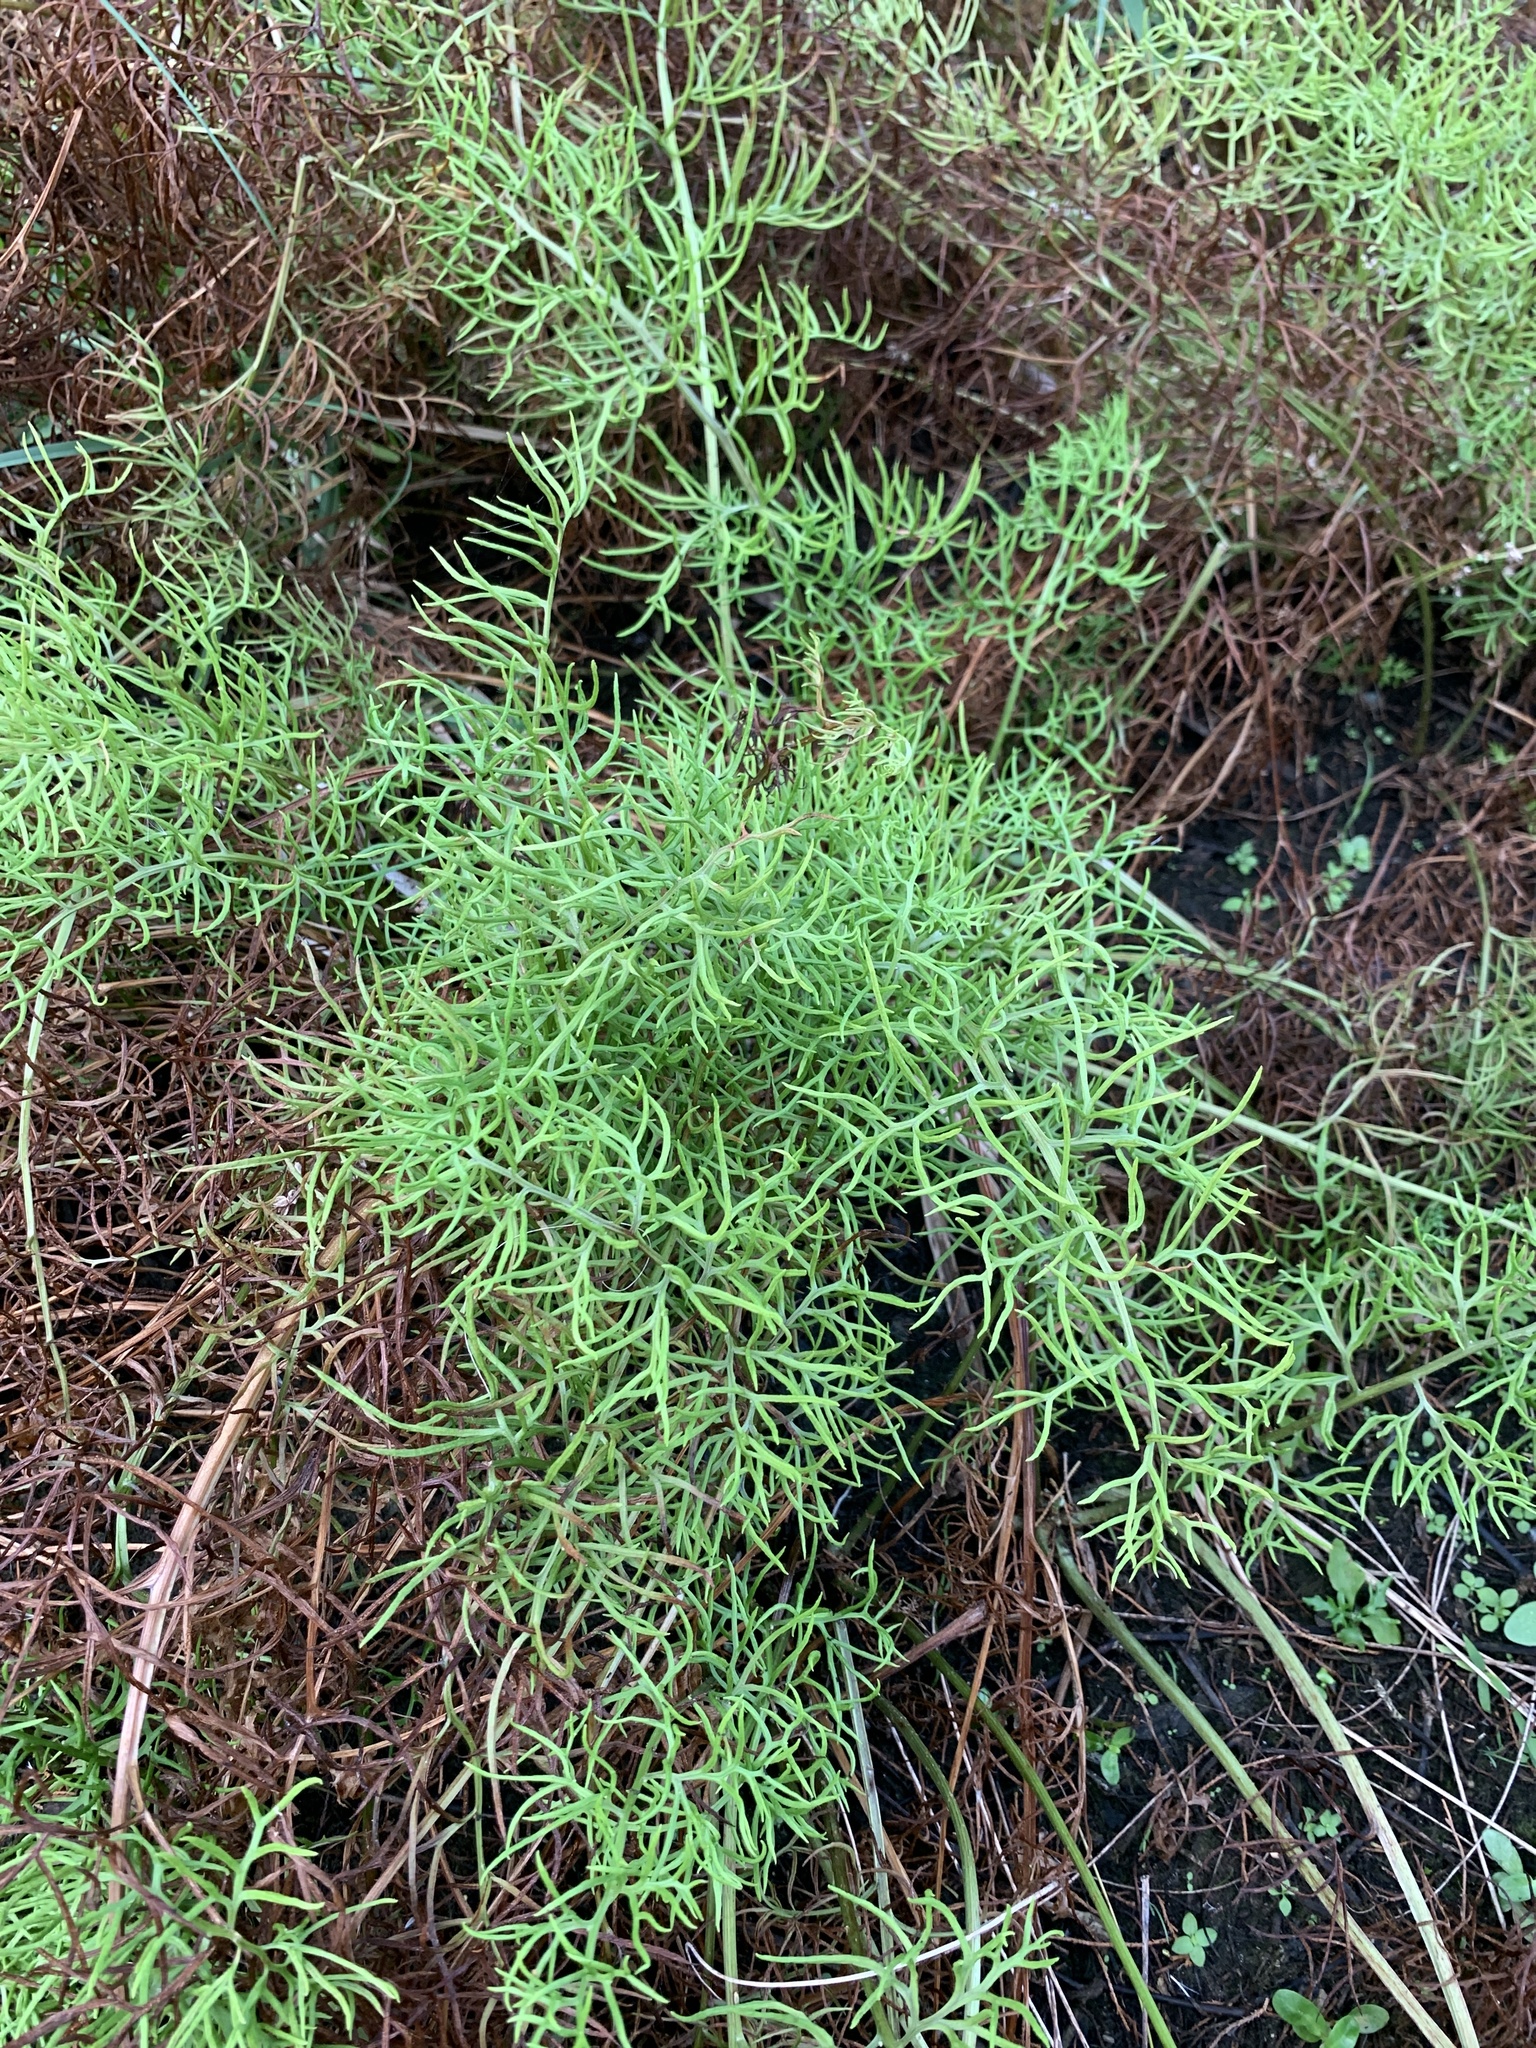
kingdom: Plantae
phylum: Tracheophyta
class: Polypodiopsida
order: Polypodiales
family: Pteridaceae
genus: Ceratopteris
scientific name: Ceratopteris thalictroides
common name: Water fern
